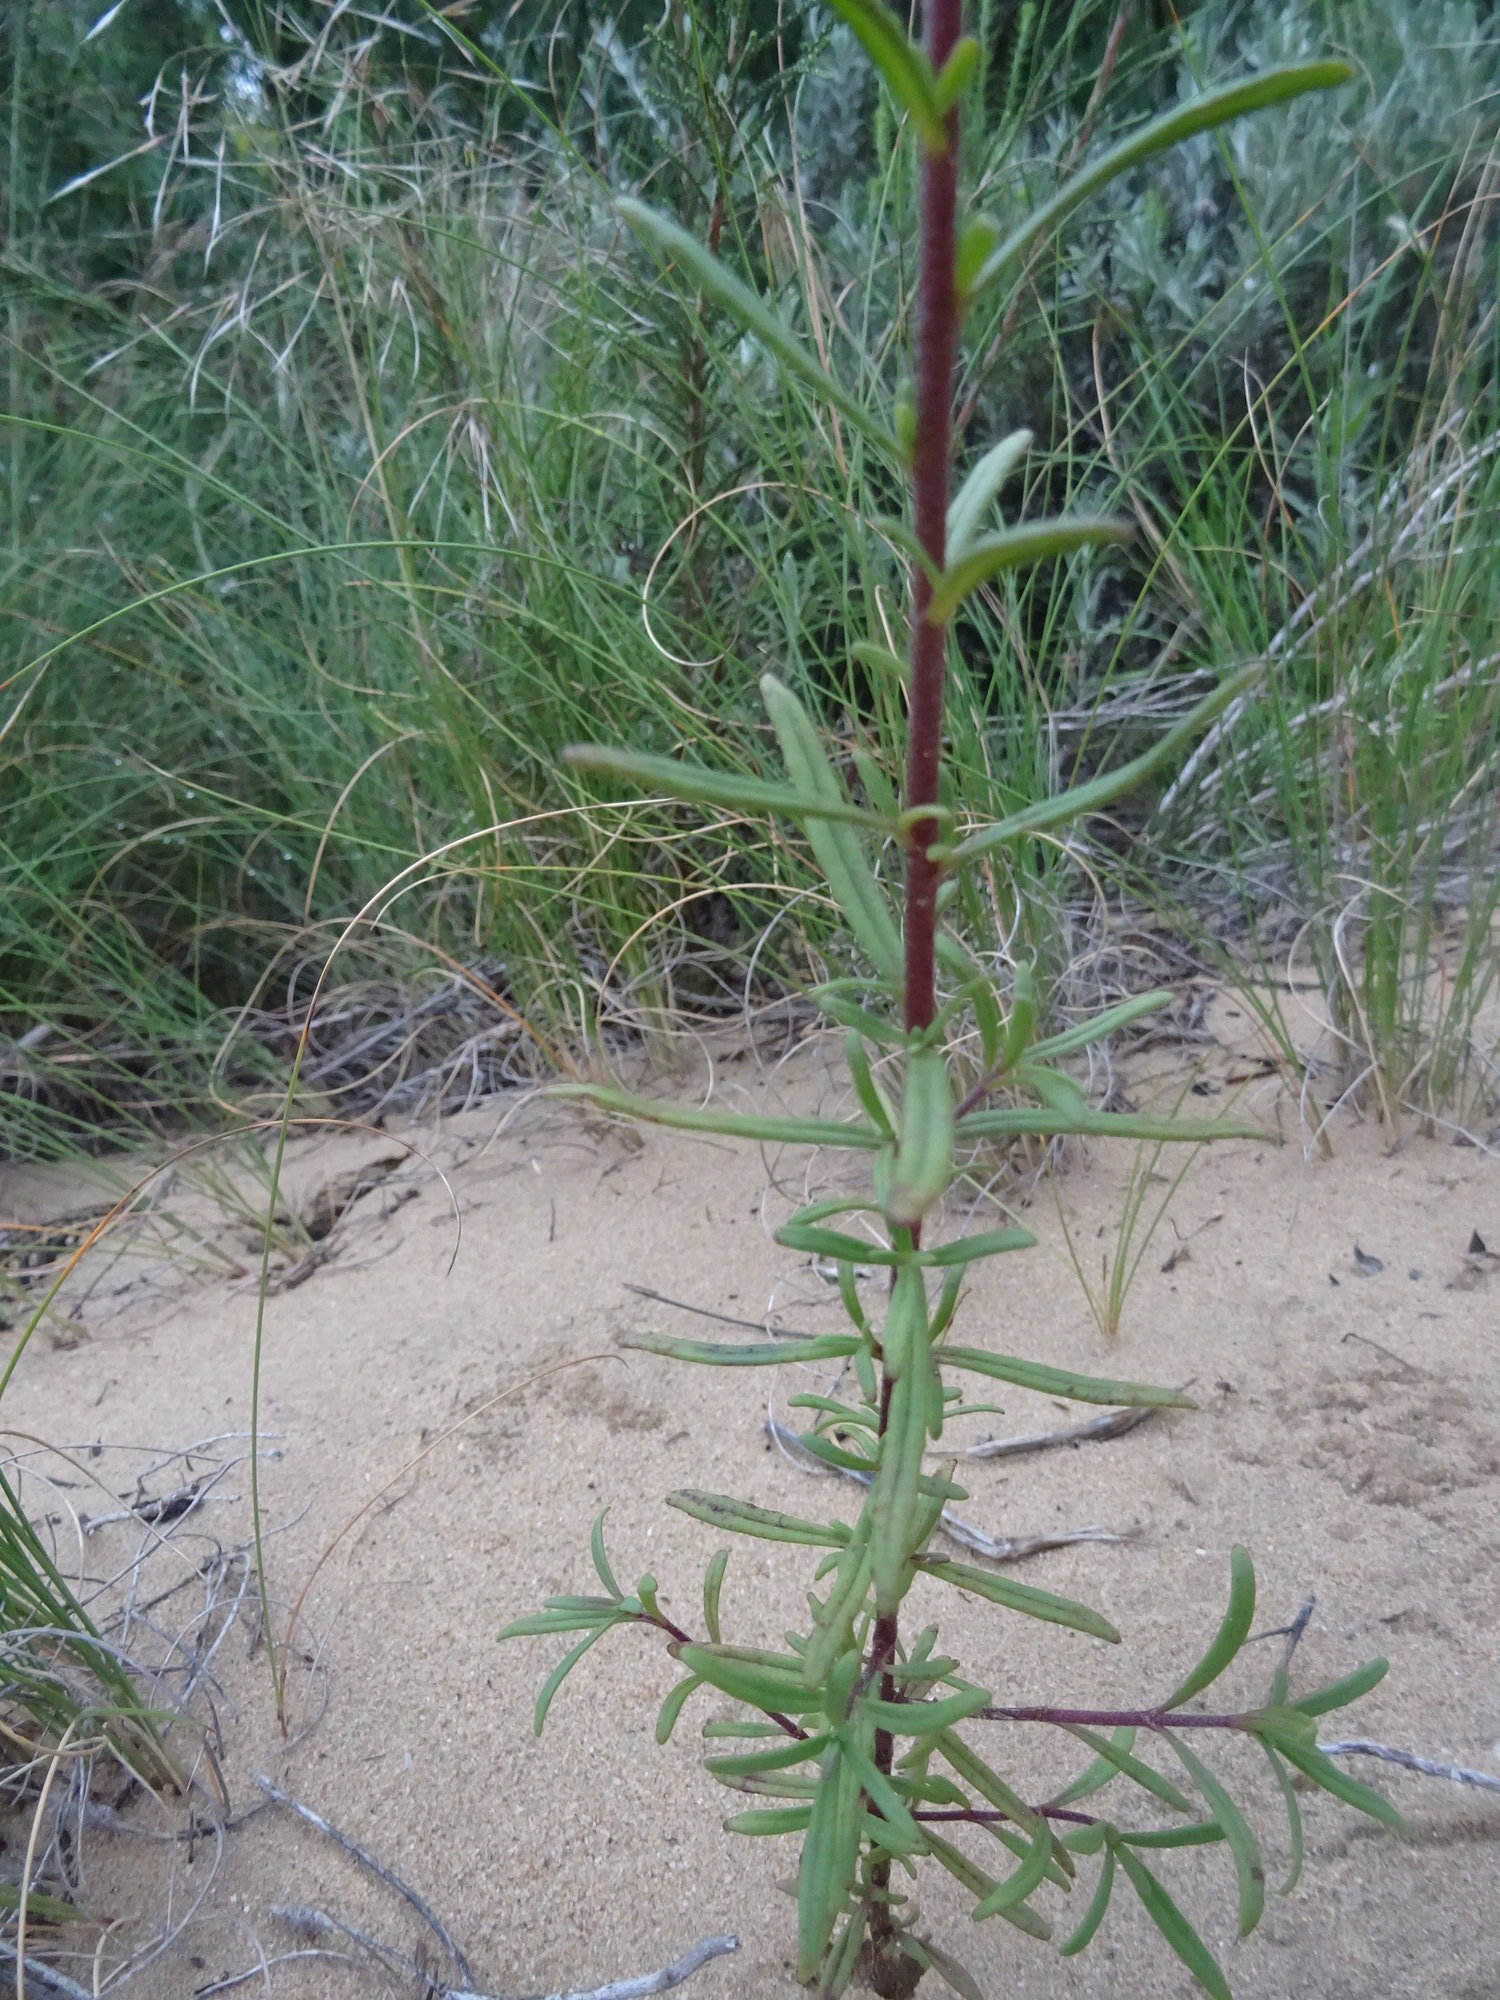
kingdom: Plantae
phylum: Tracheophyta
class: Magnoliopsida
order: Lamiales
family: Scrophulariaceae
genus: Zaluzianskya
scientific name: Zaluzianskya capensis
